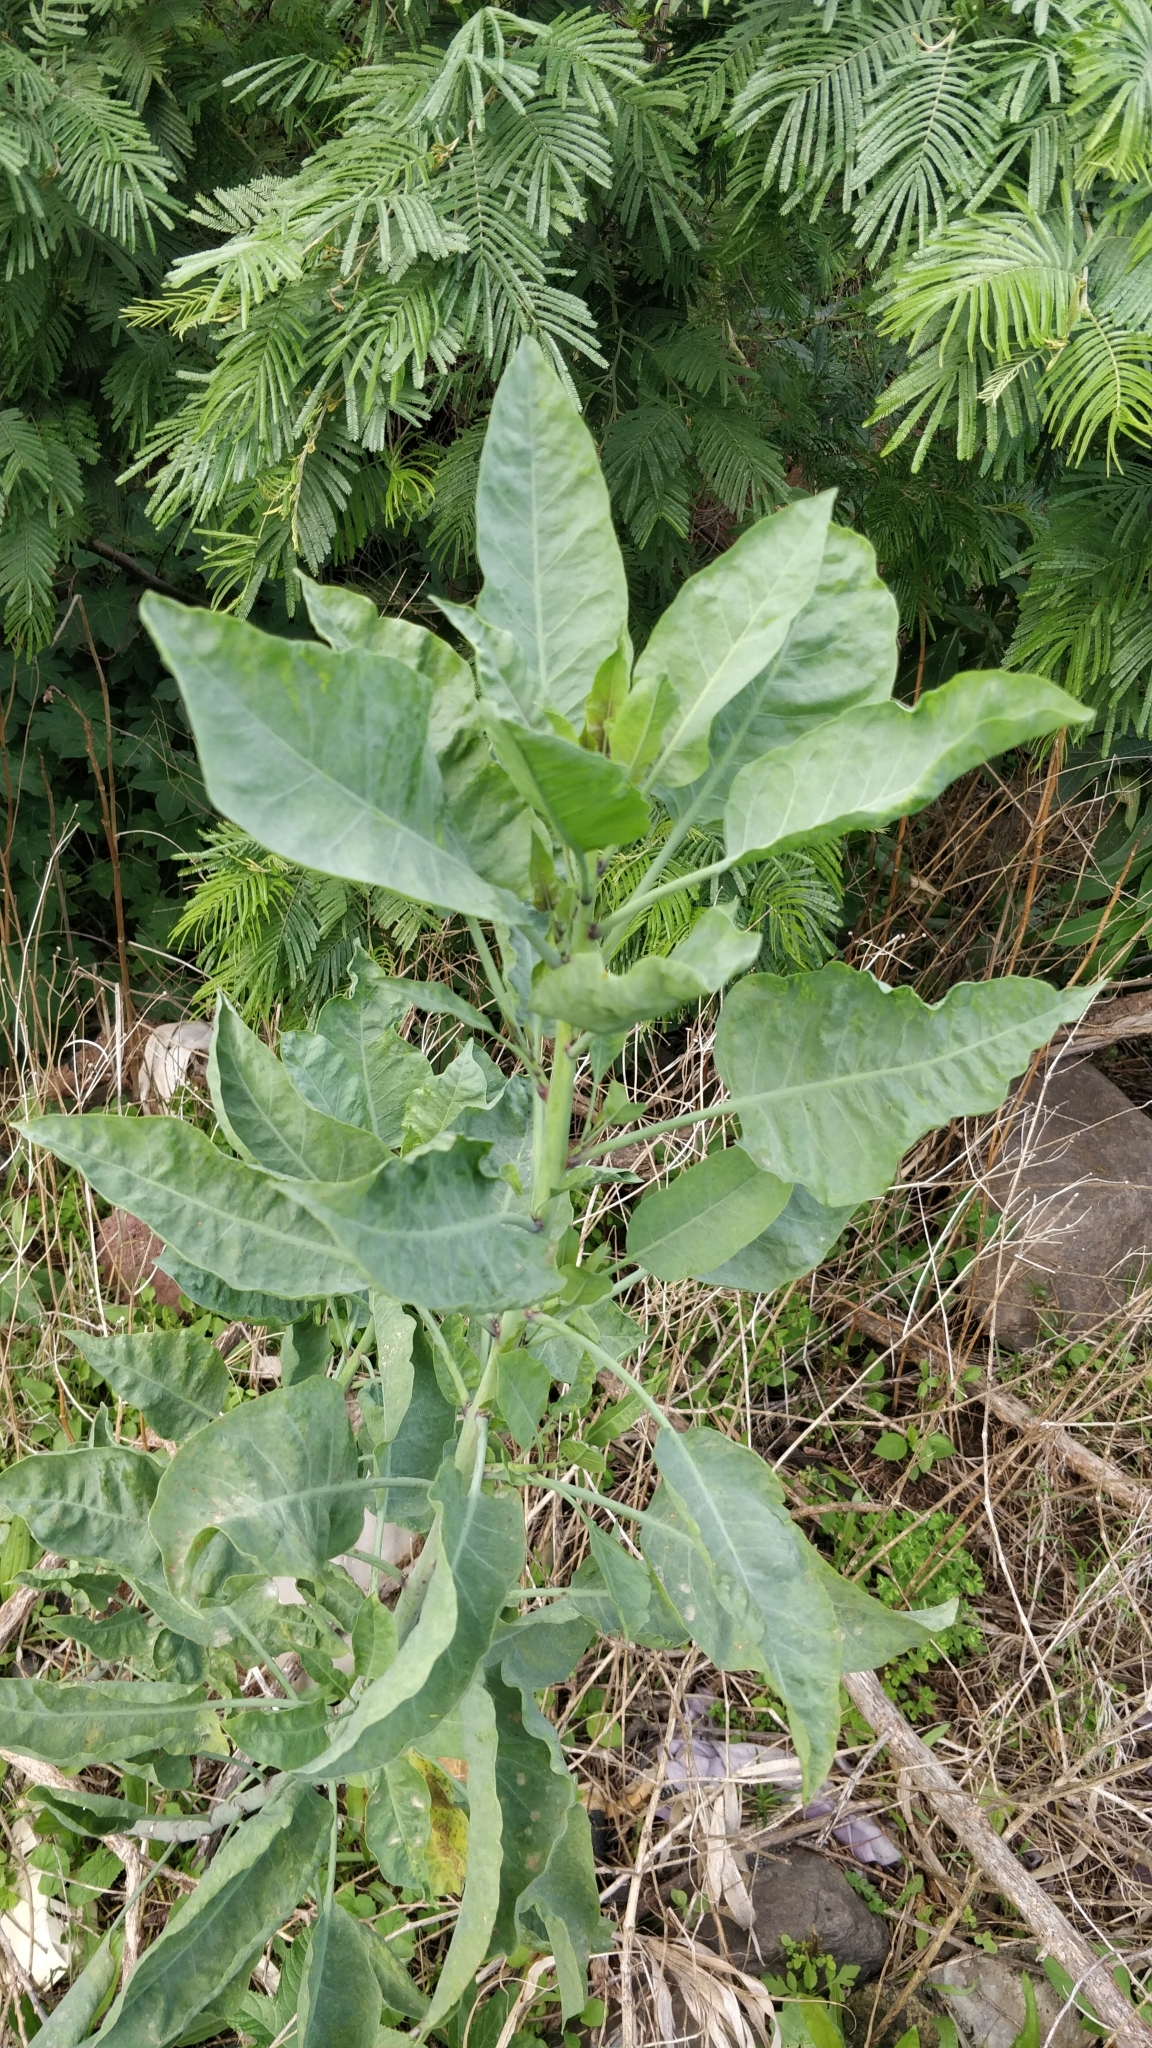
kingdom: Plantae
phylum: Tracheophyta
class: Magnoliopsida
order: Solanales
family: Solanaceae
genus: Nicotiana
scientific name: Nicotiana glauca
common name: Tree tobacco
